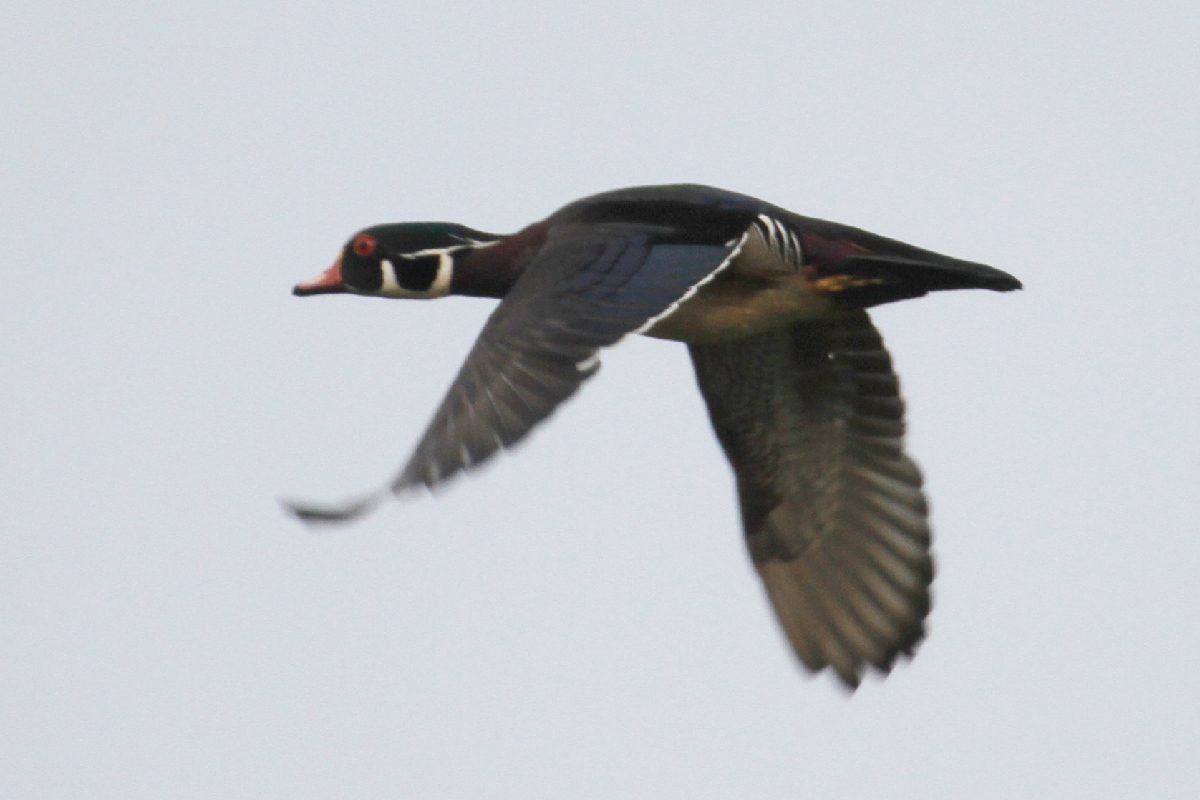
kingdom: Animalia
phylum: Chordata
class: Aves
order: Anseriformes
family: Anatidae
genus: Aix
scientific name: Aix sponsa
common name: Wood duck
